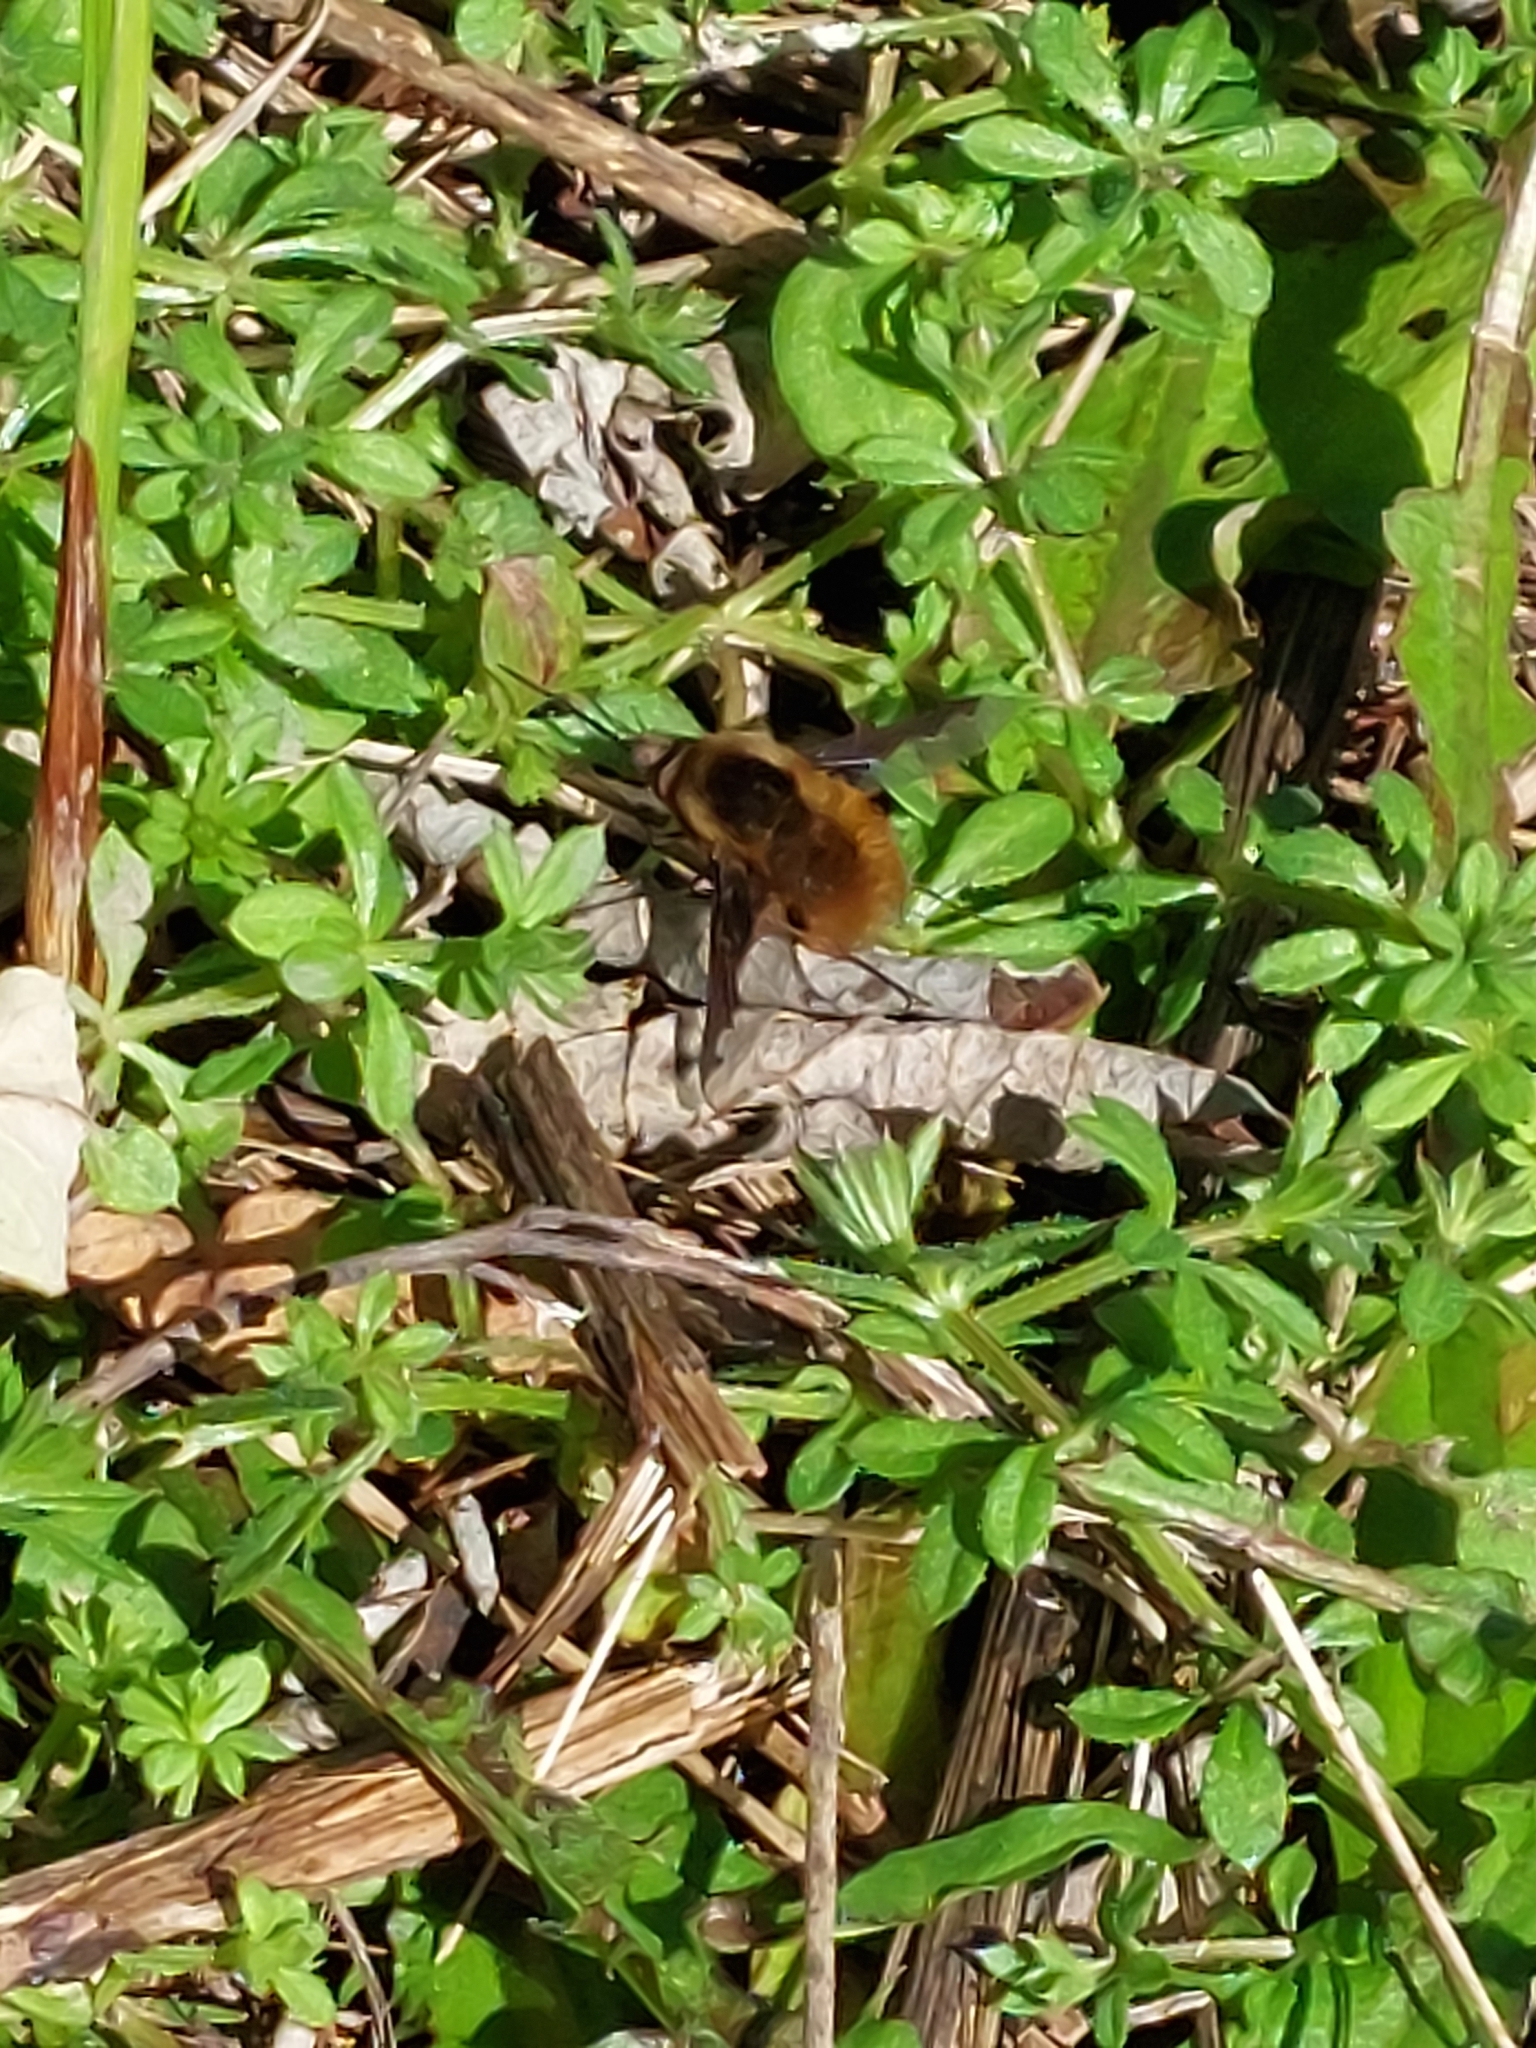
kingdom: Animalia
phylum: Arthropoda
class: Insecta
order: Diptera
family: Bombyliidae
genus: Bombylius
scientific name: Bombylius major
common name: Bee fly
